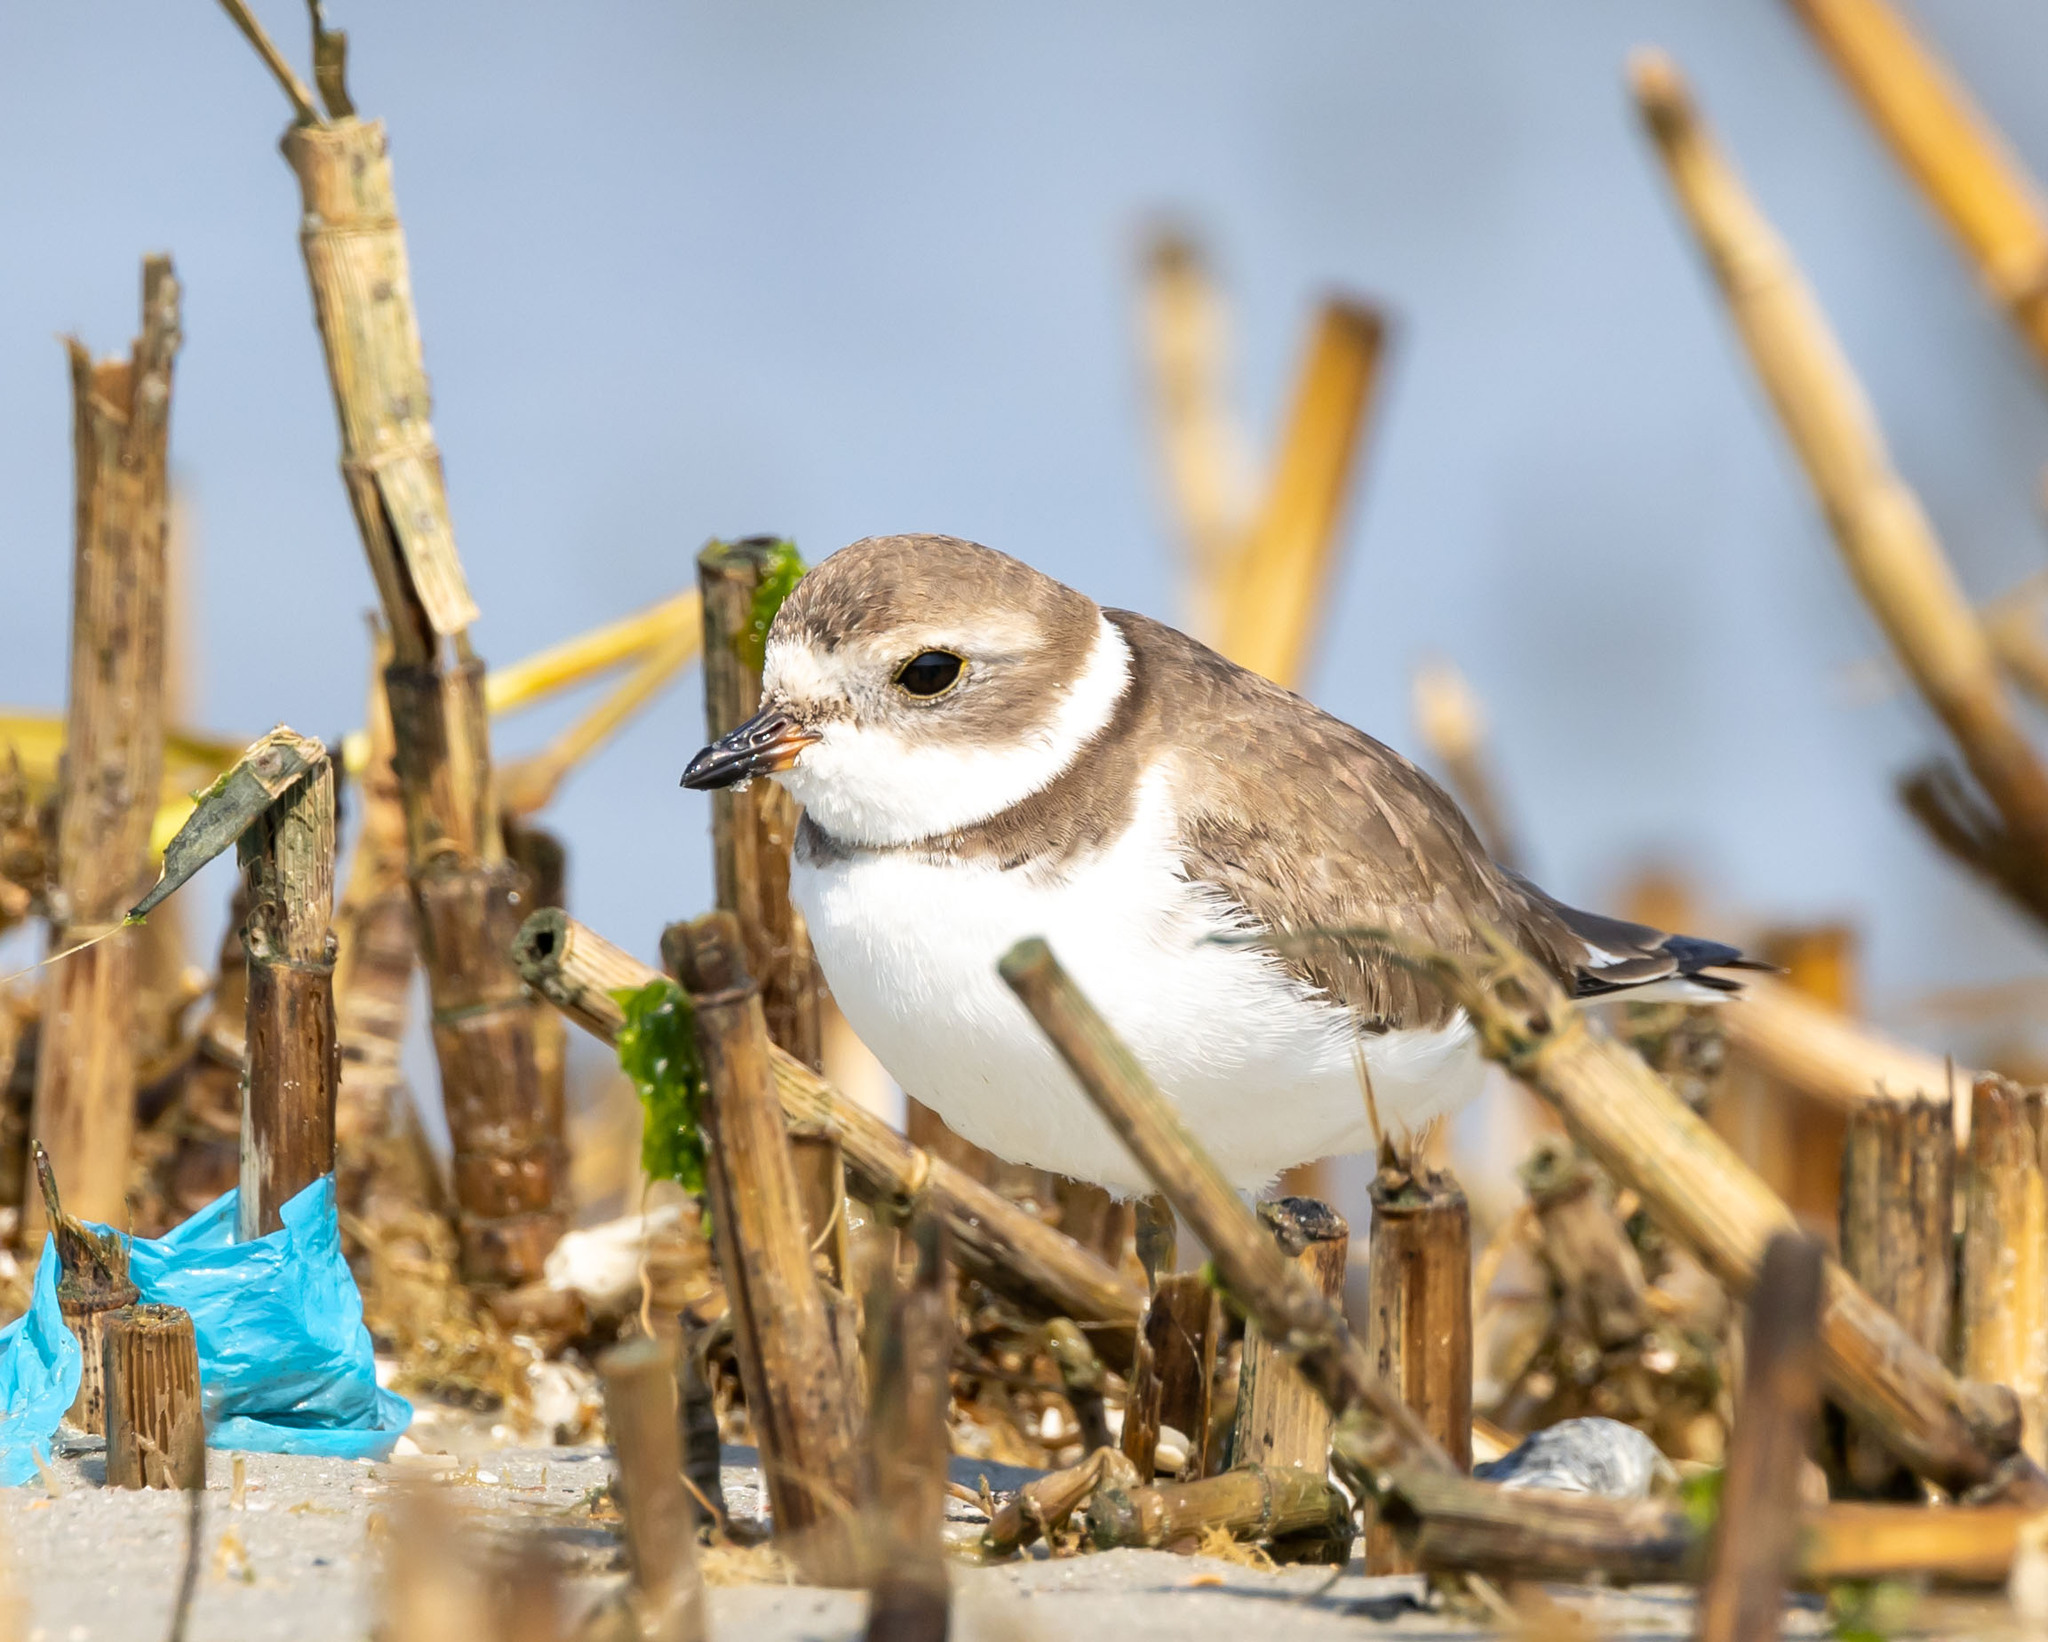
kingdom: Animalia
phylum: Chordata
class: Aves
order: Charadriiformes
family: Charadriidae
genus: Charadrius
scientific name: Charadrius semipalmatus
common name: Semipalmated plover
